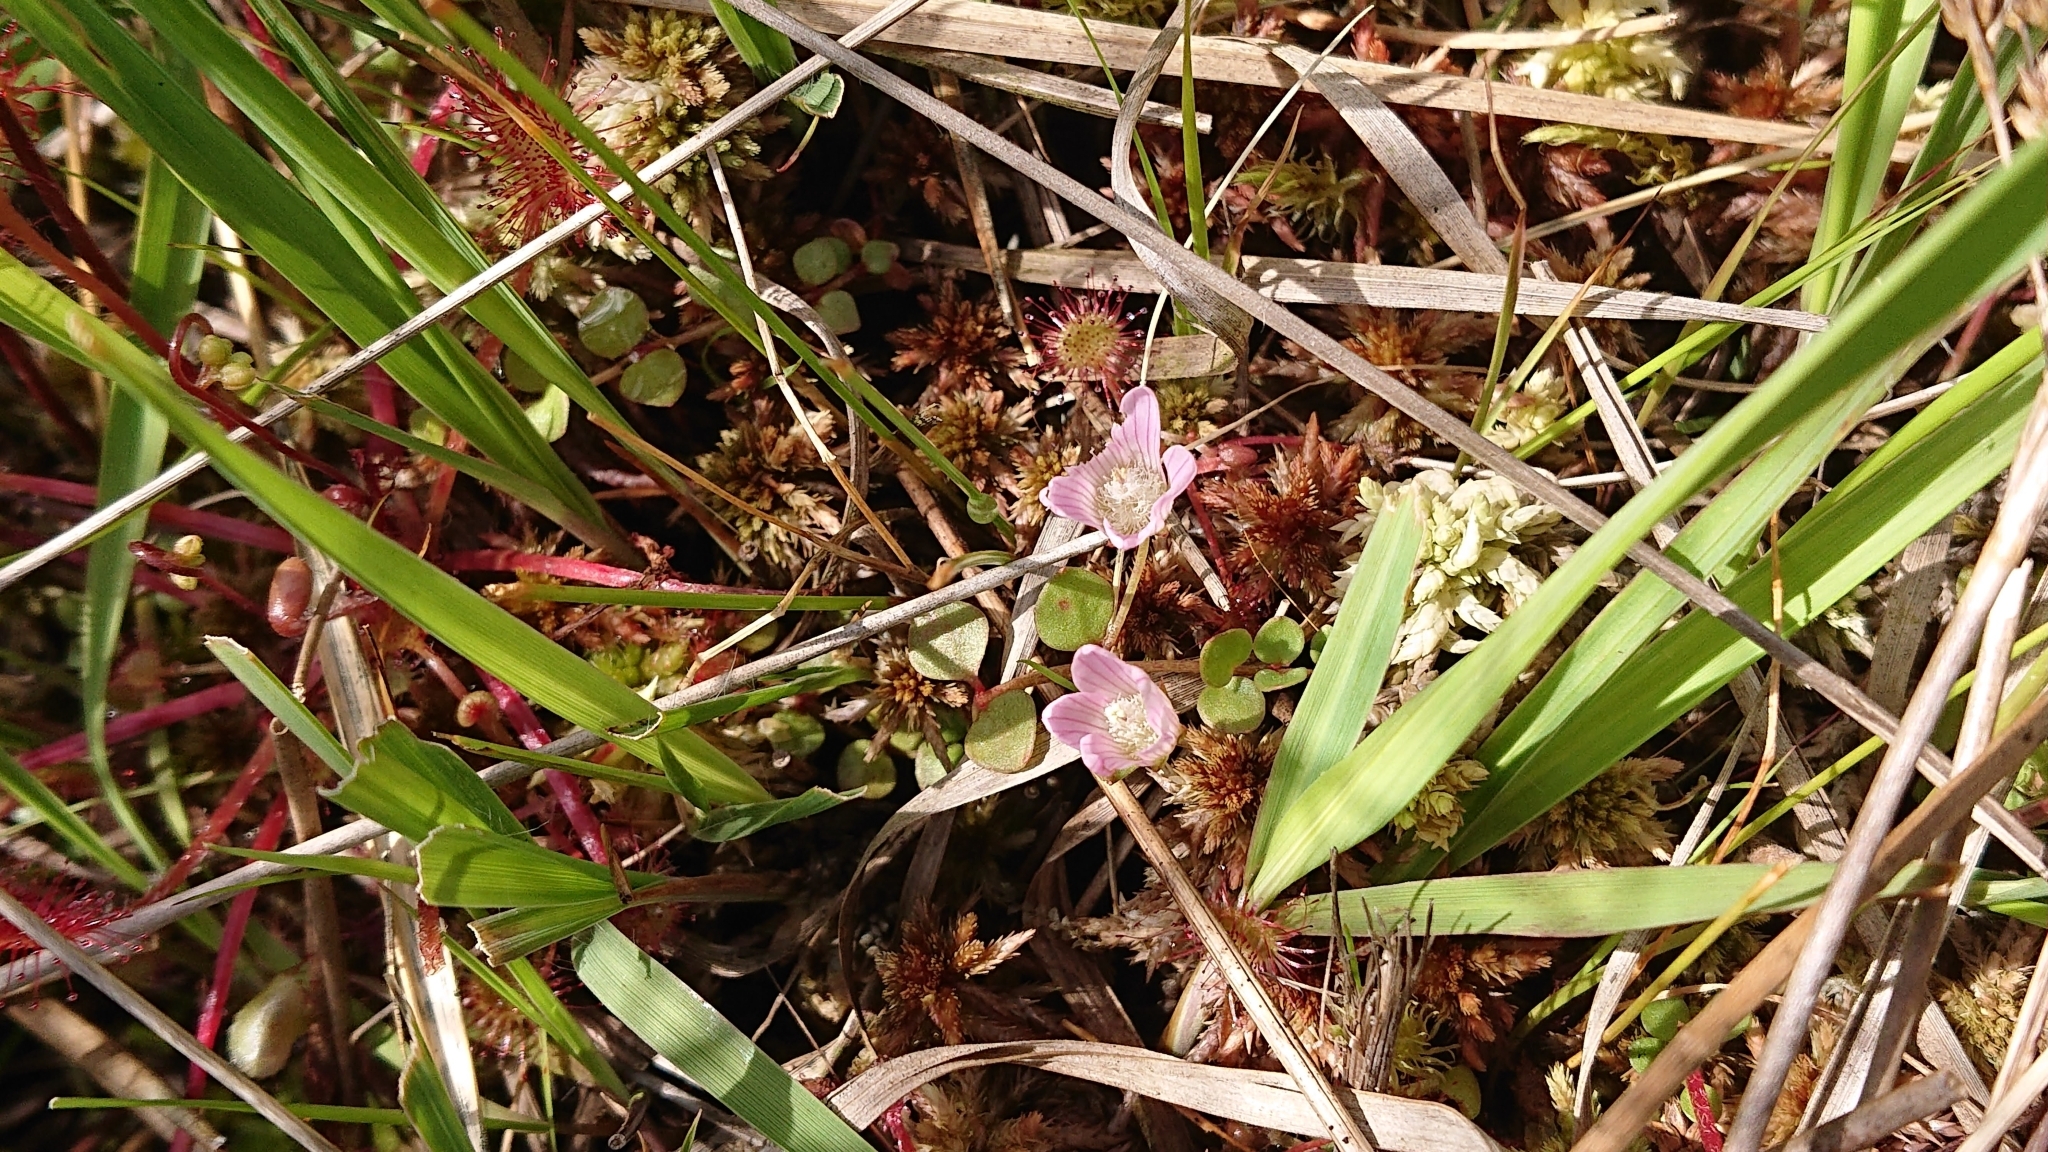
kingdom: Plantae
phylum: Tracheophyta
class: Magnoliopsida
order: Ericales
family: Primulaceae
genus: Lysimachia
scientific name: Lysimachia tenella
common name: European bog pimpernel
